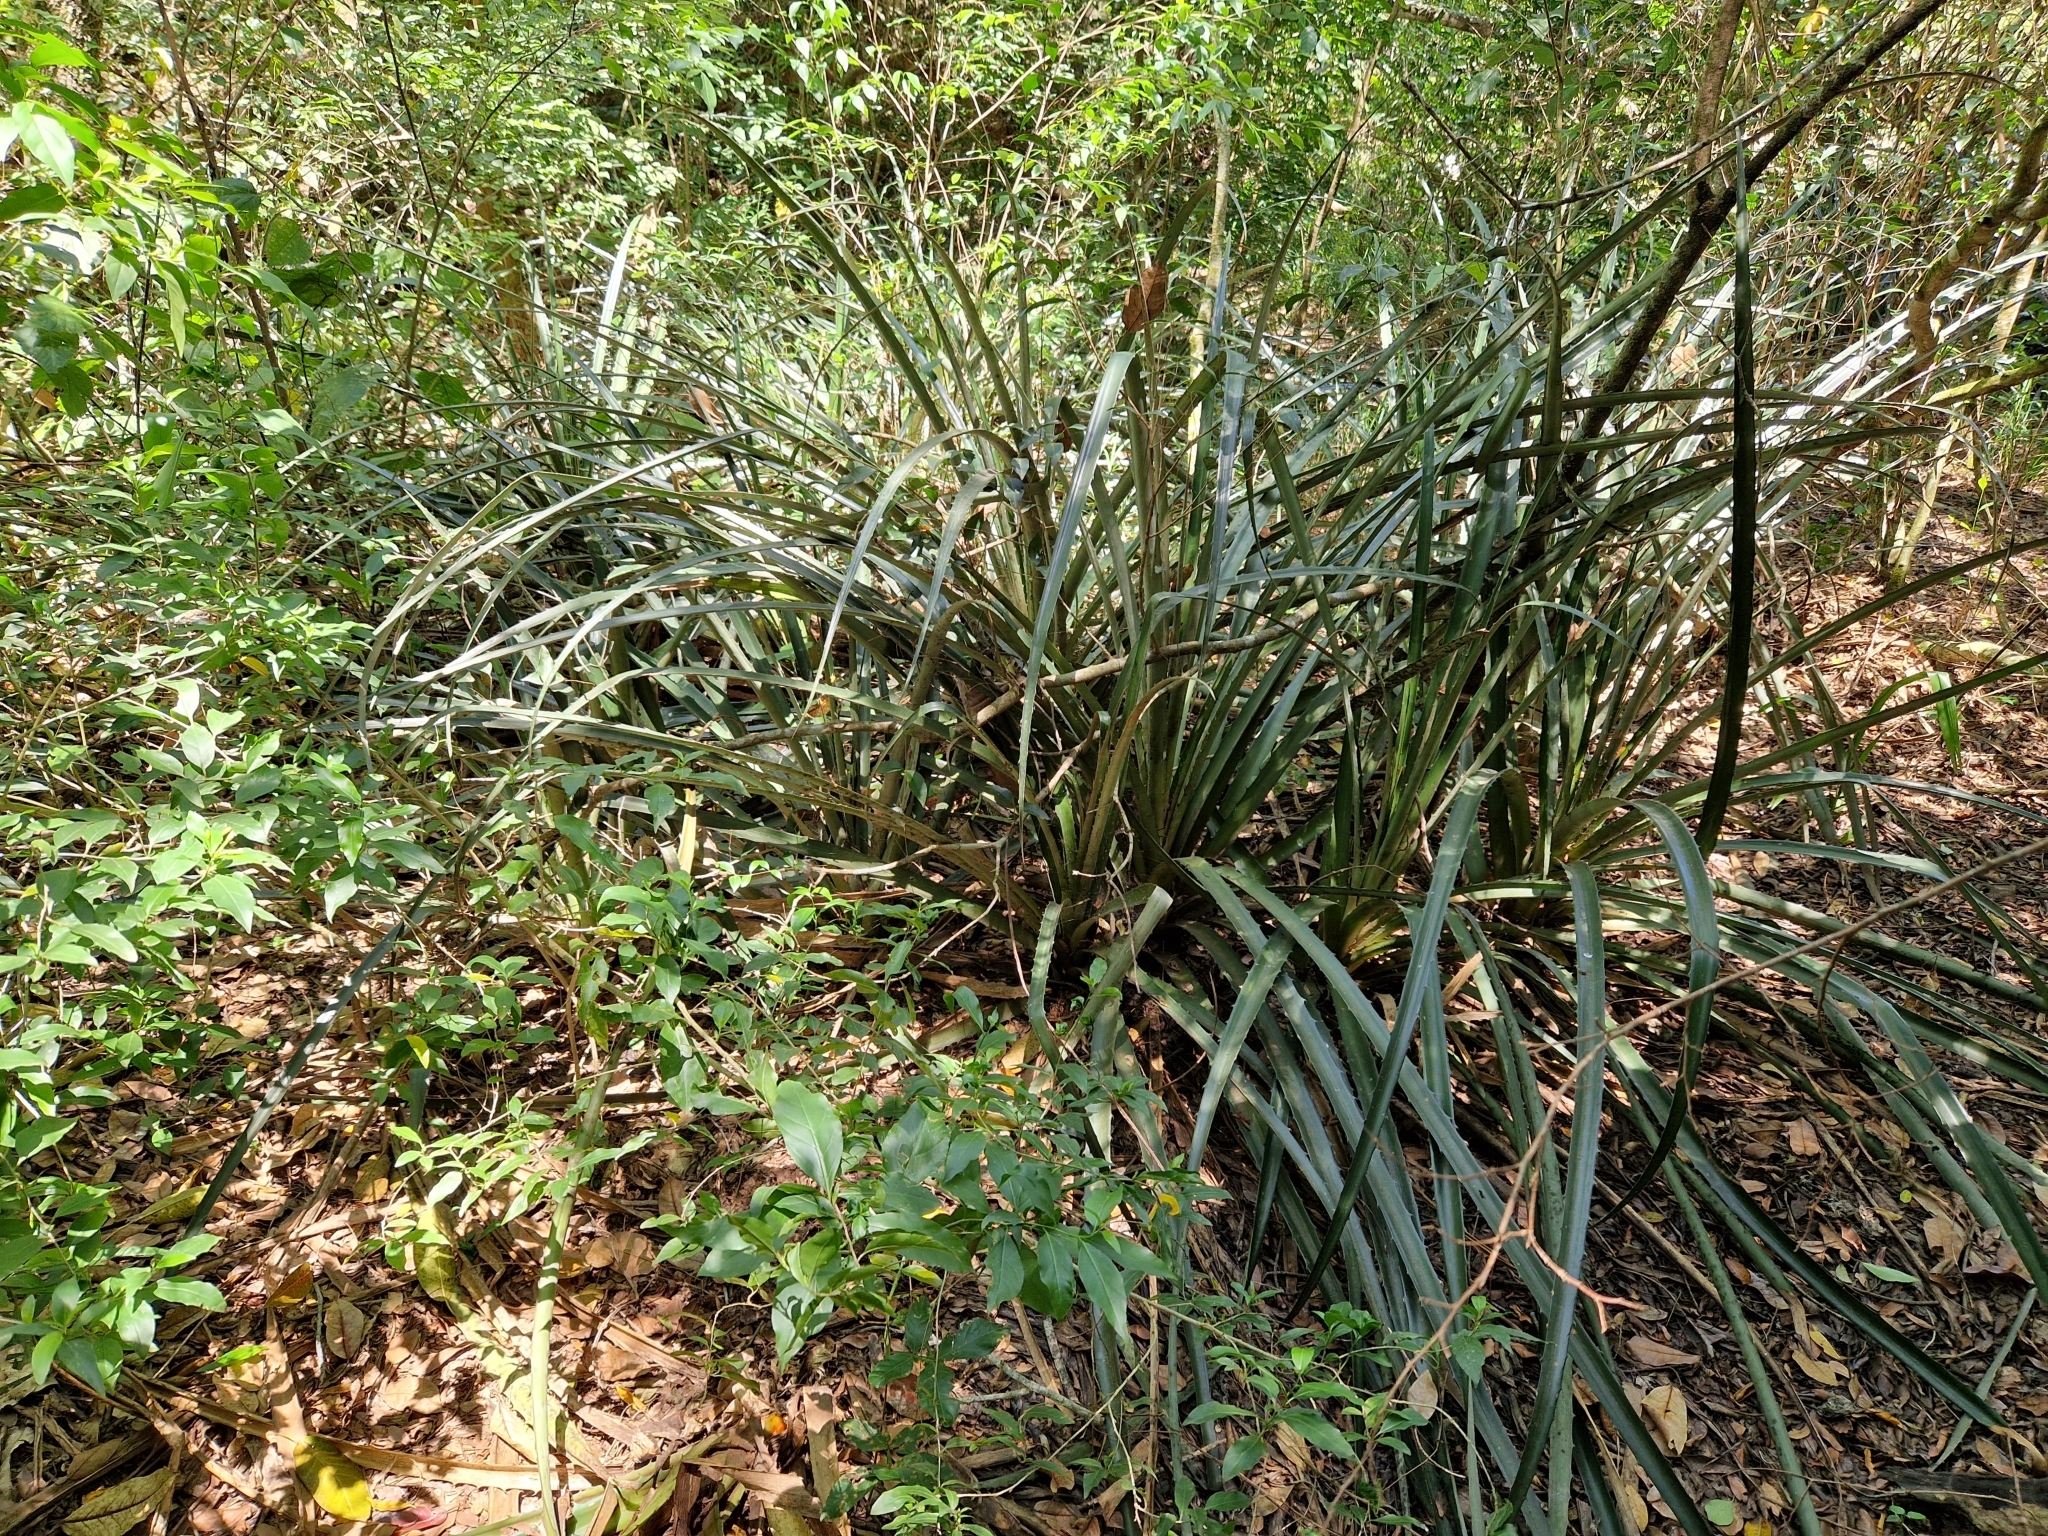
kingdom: Plantae
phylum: Tracheophyta
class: Liliopsida
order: Poales
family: Bromeliaceae
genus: Bromelia
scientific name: Bromelia balansae
